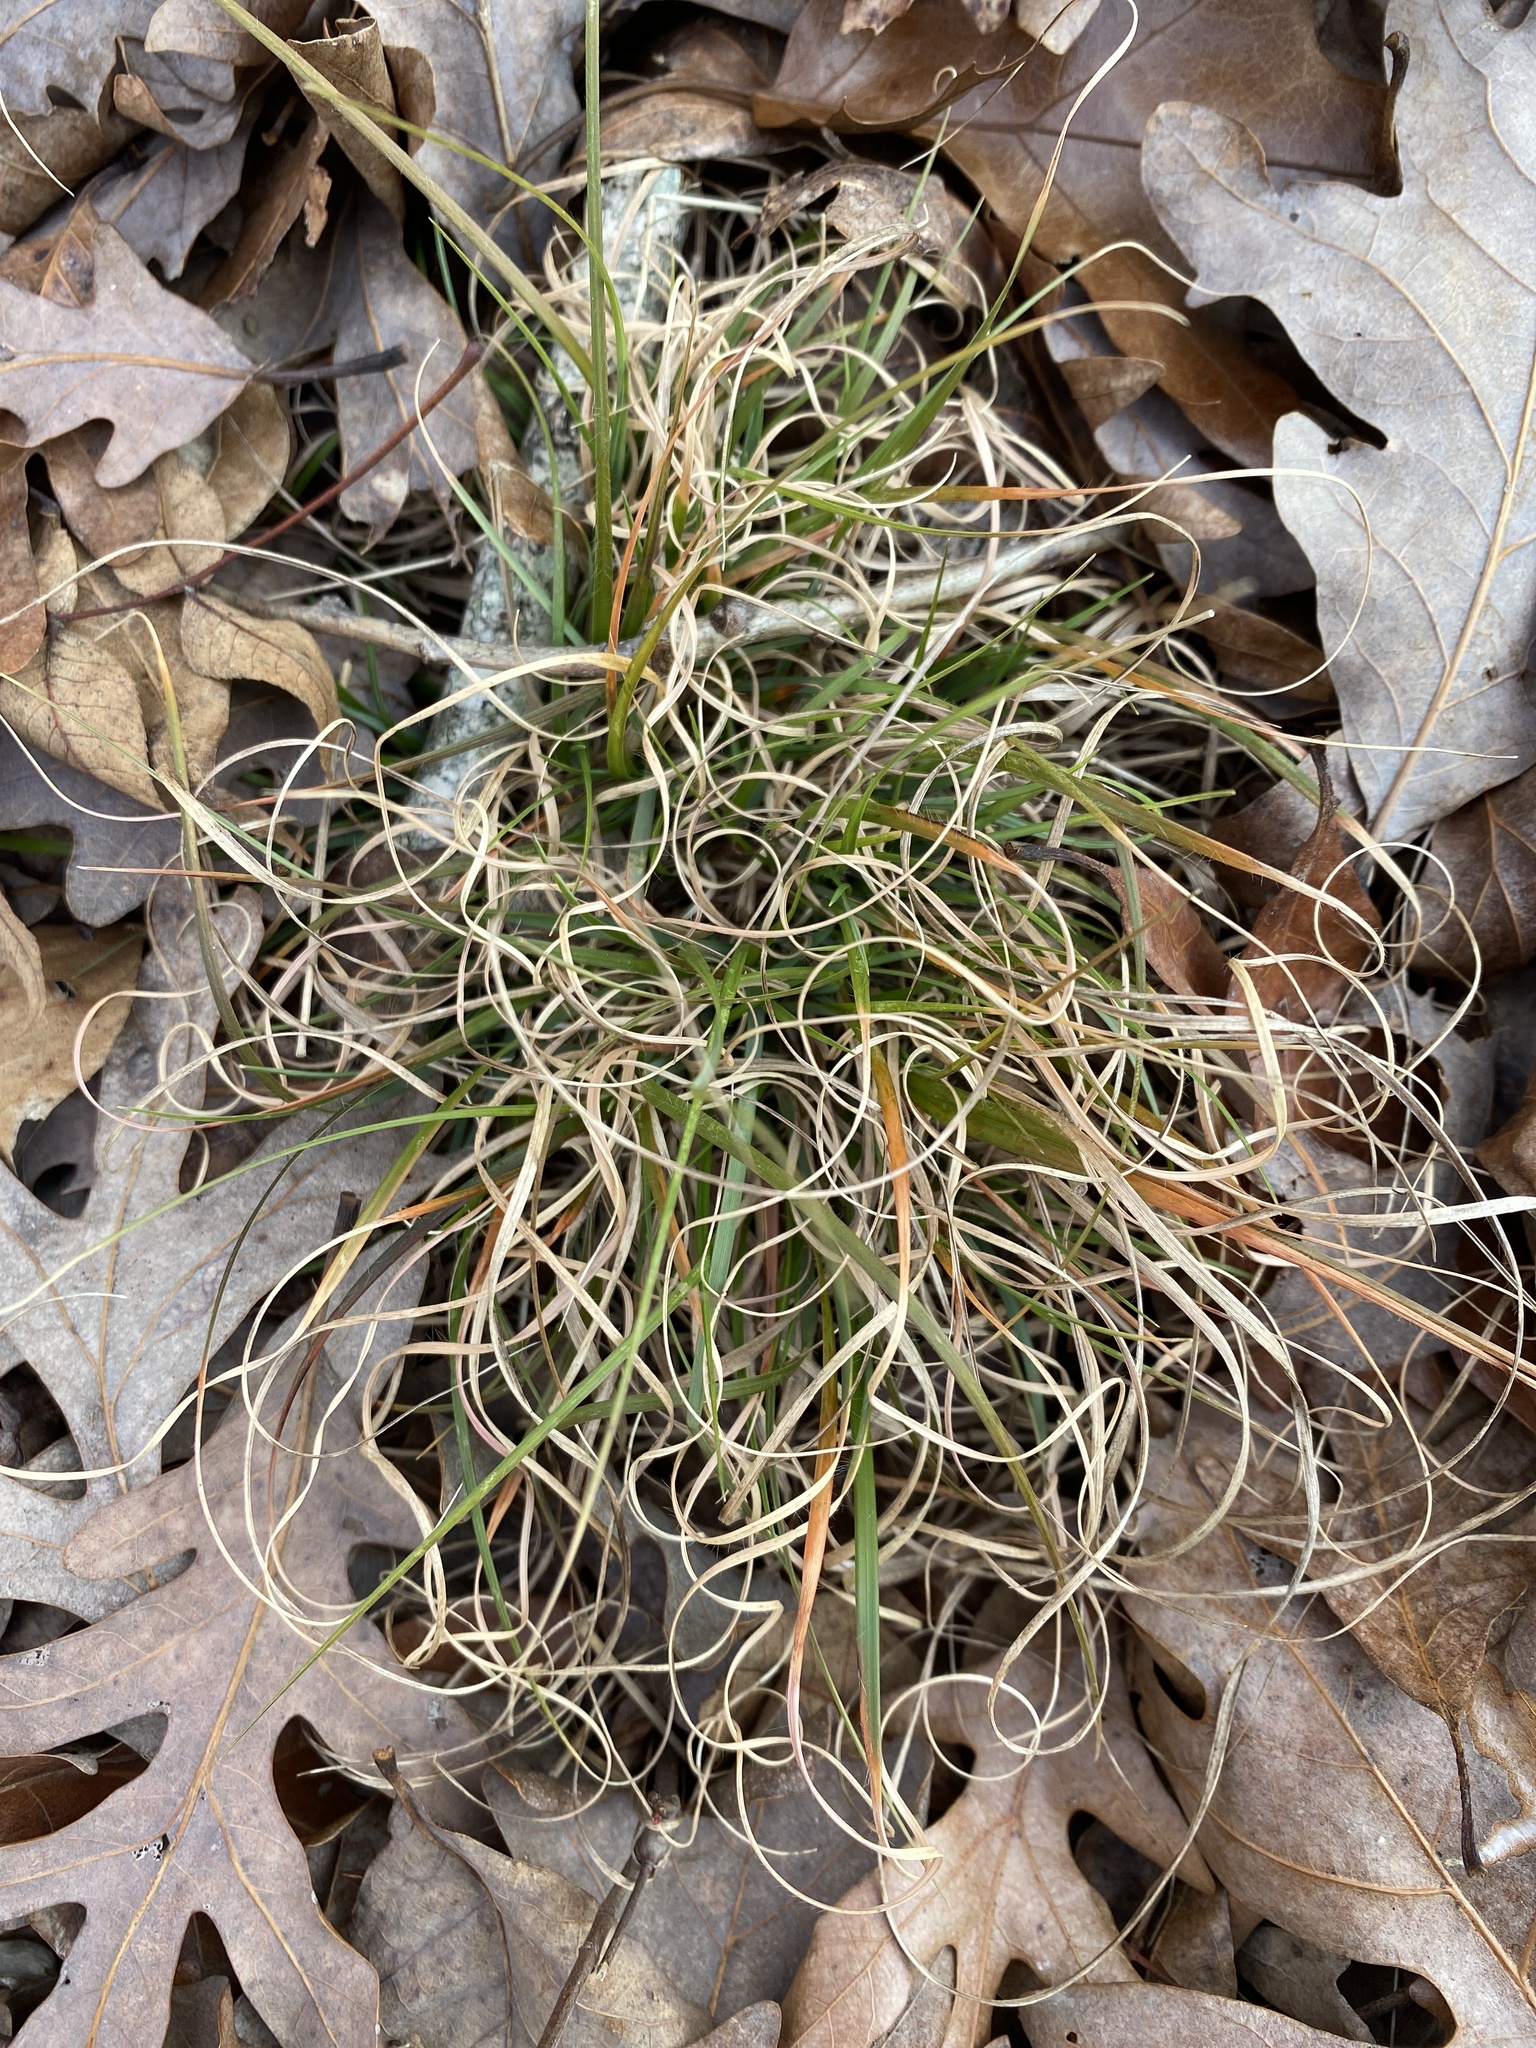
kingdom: Plantae
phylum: Tracheophyta
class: Liliopsida
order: Poales
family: Poaceae
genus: Danthonia
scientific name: Danthonia spicata
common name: Common wild oatgrass
